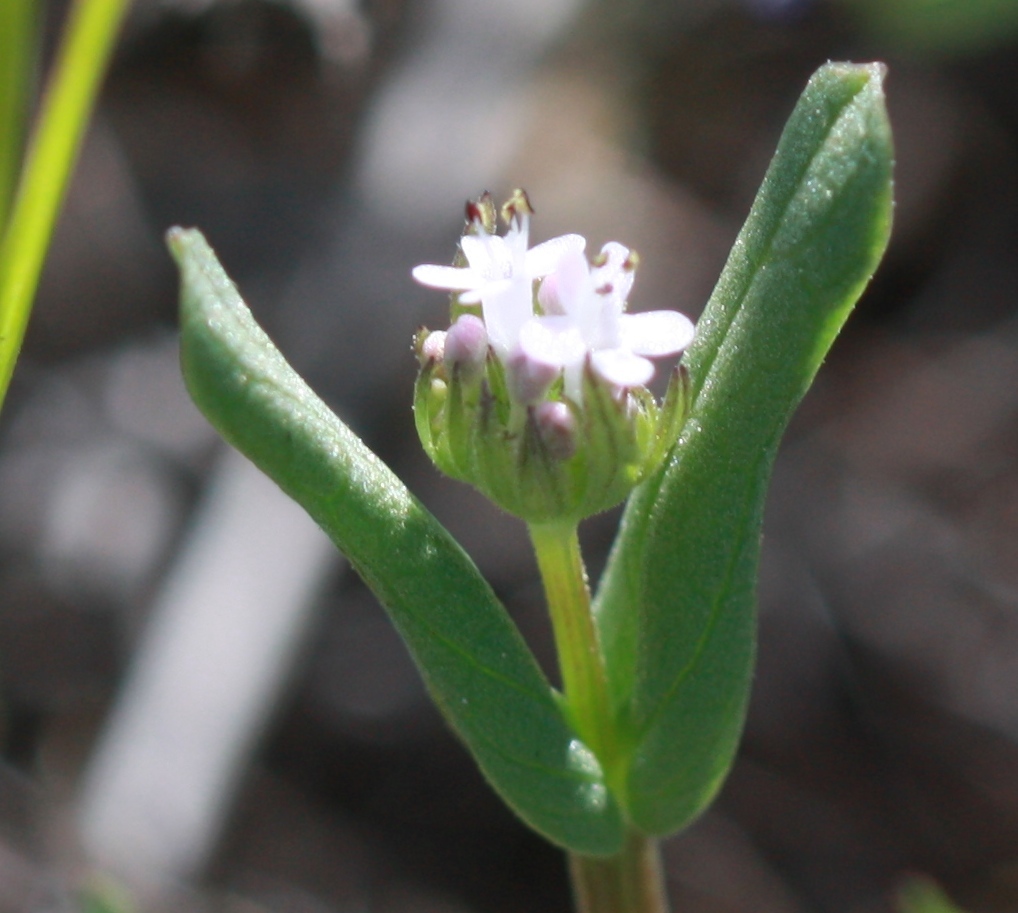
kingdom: Plantae
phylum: Tracheophyta
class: Magnoliopsida
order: Dipsacales
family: Caprifoliaceae
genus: Plectritis
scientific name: Plectritis macroptera
